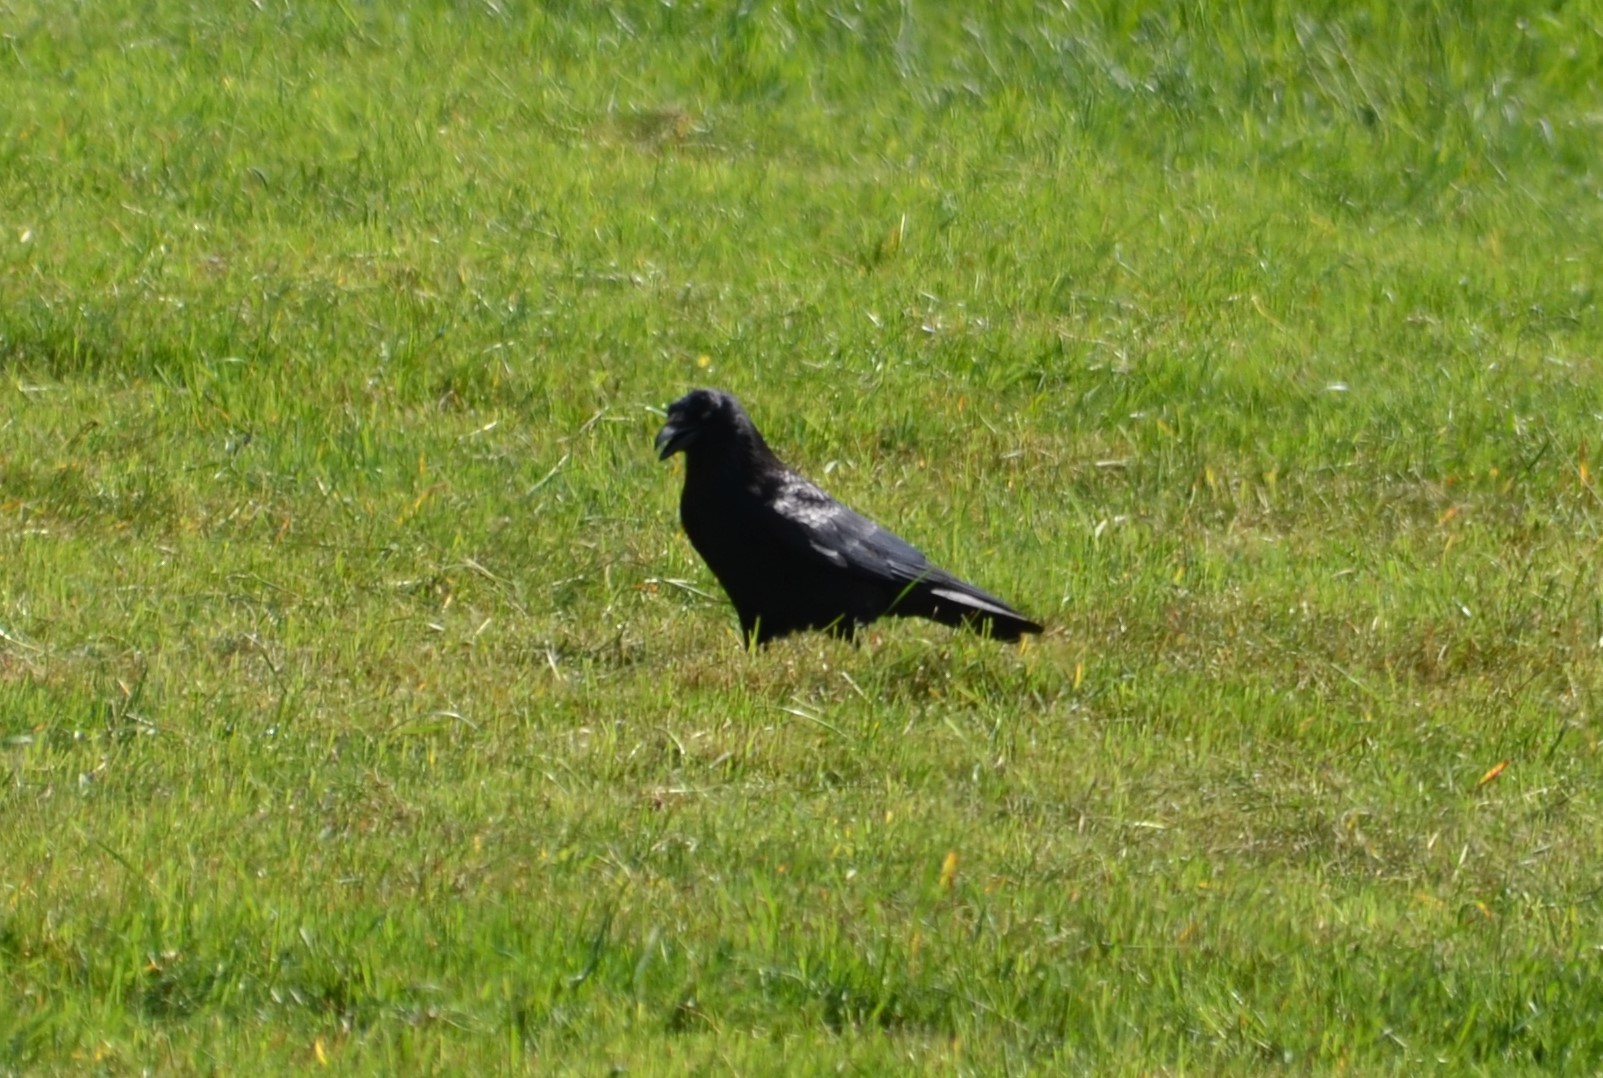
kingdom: Animalia
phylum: Chordata
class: Aves
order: Passeriformes
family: Corvidae
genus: Corvus
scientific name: Corvus corone
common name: Carrion crow
